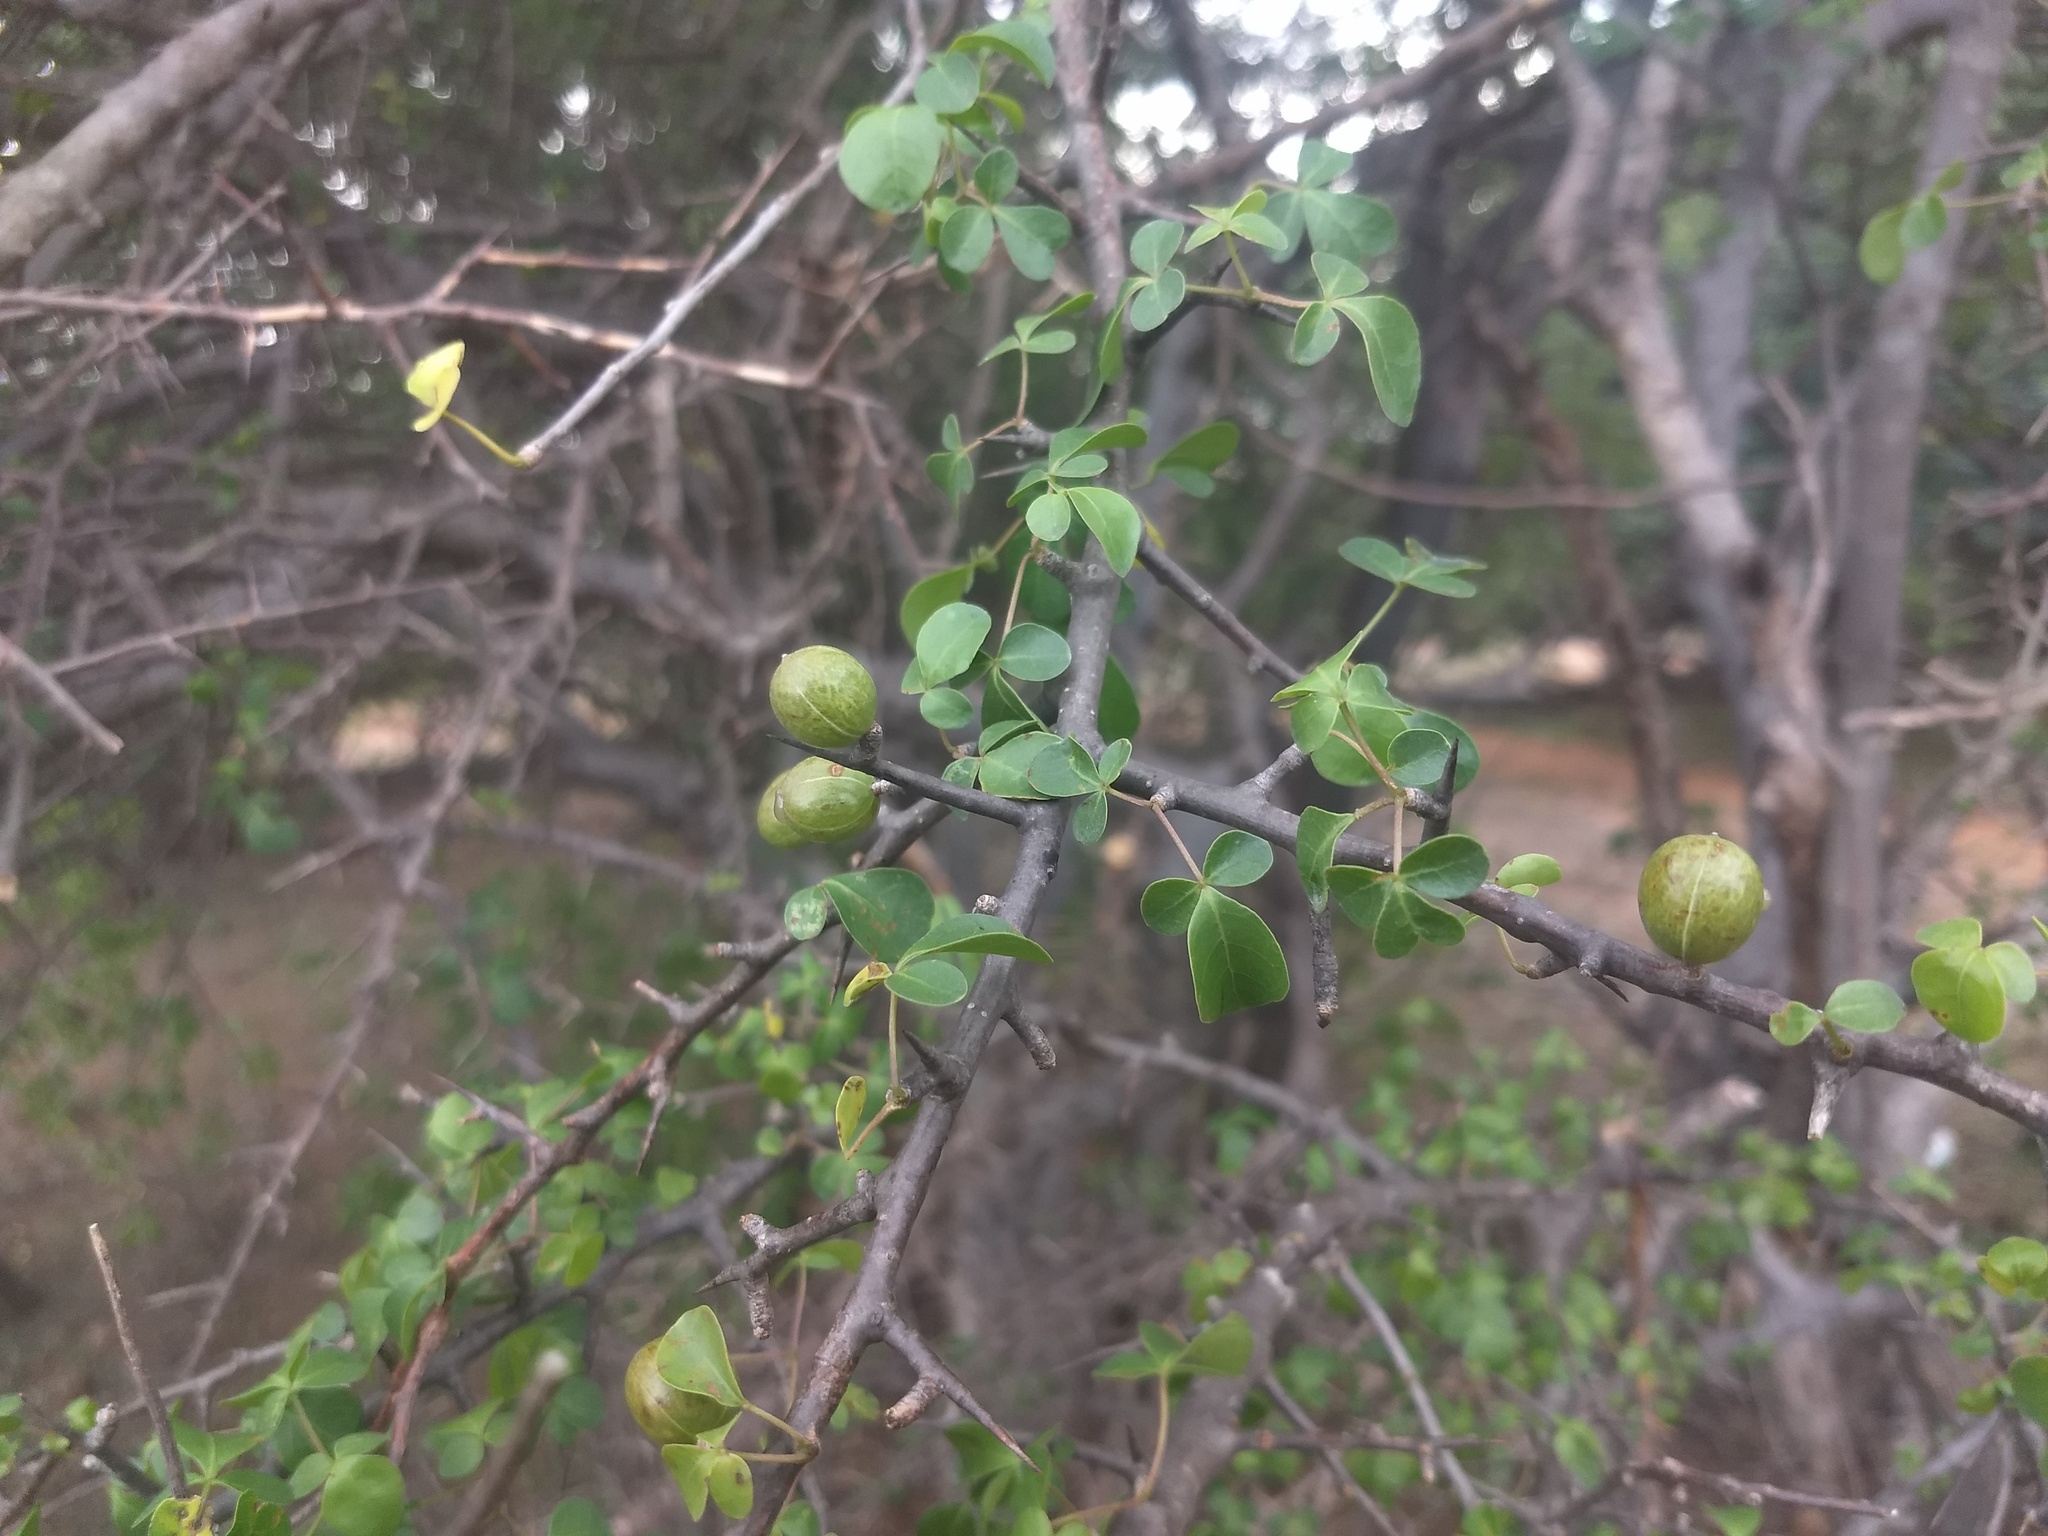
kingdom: Plantae
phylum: Tracheophyta
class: Magnoliopsida
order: Sapindales
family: Burseraceae
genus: Commiphora
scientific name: Commiphora berryi
